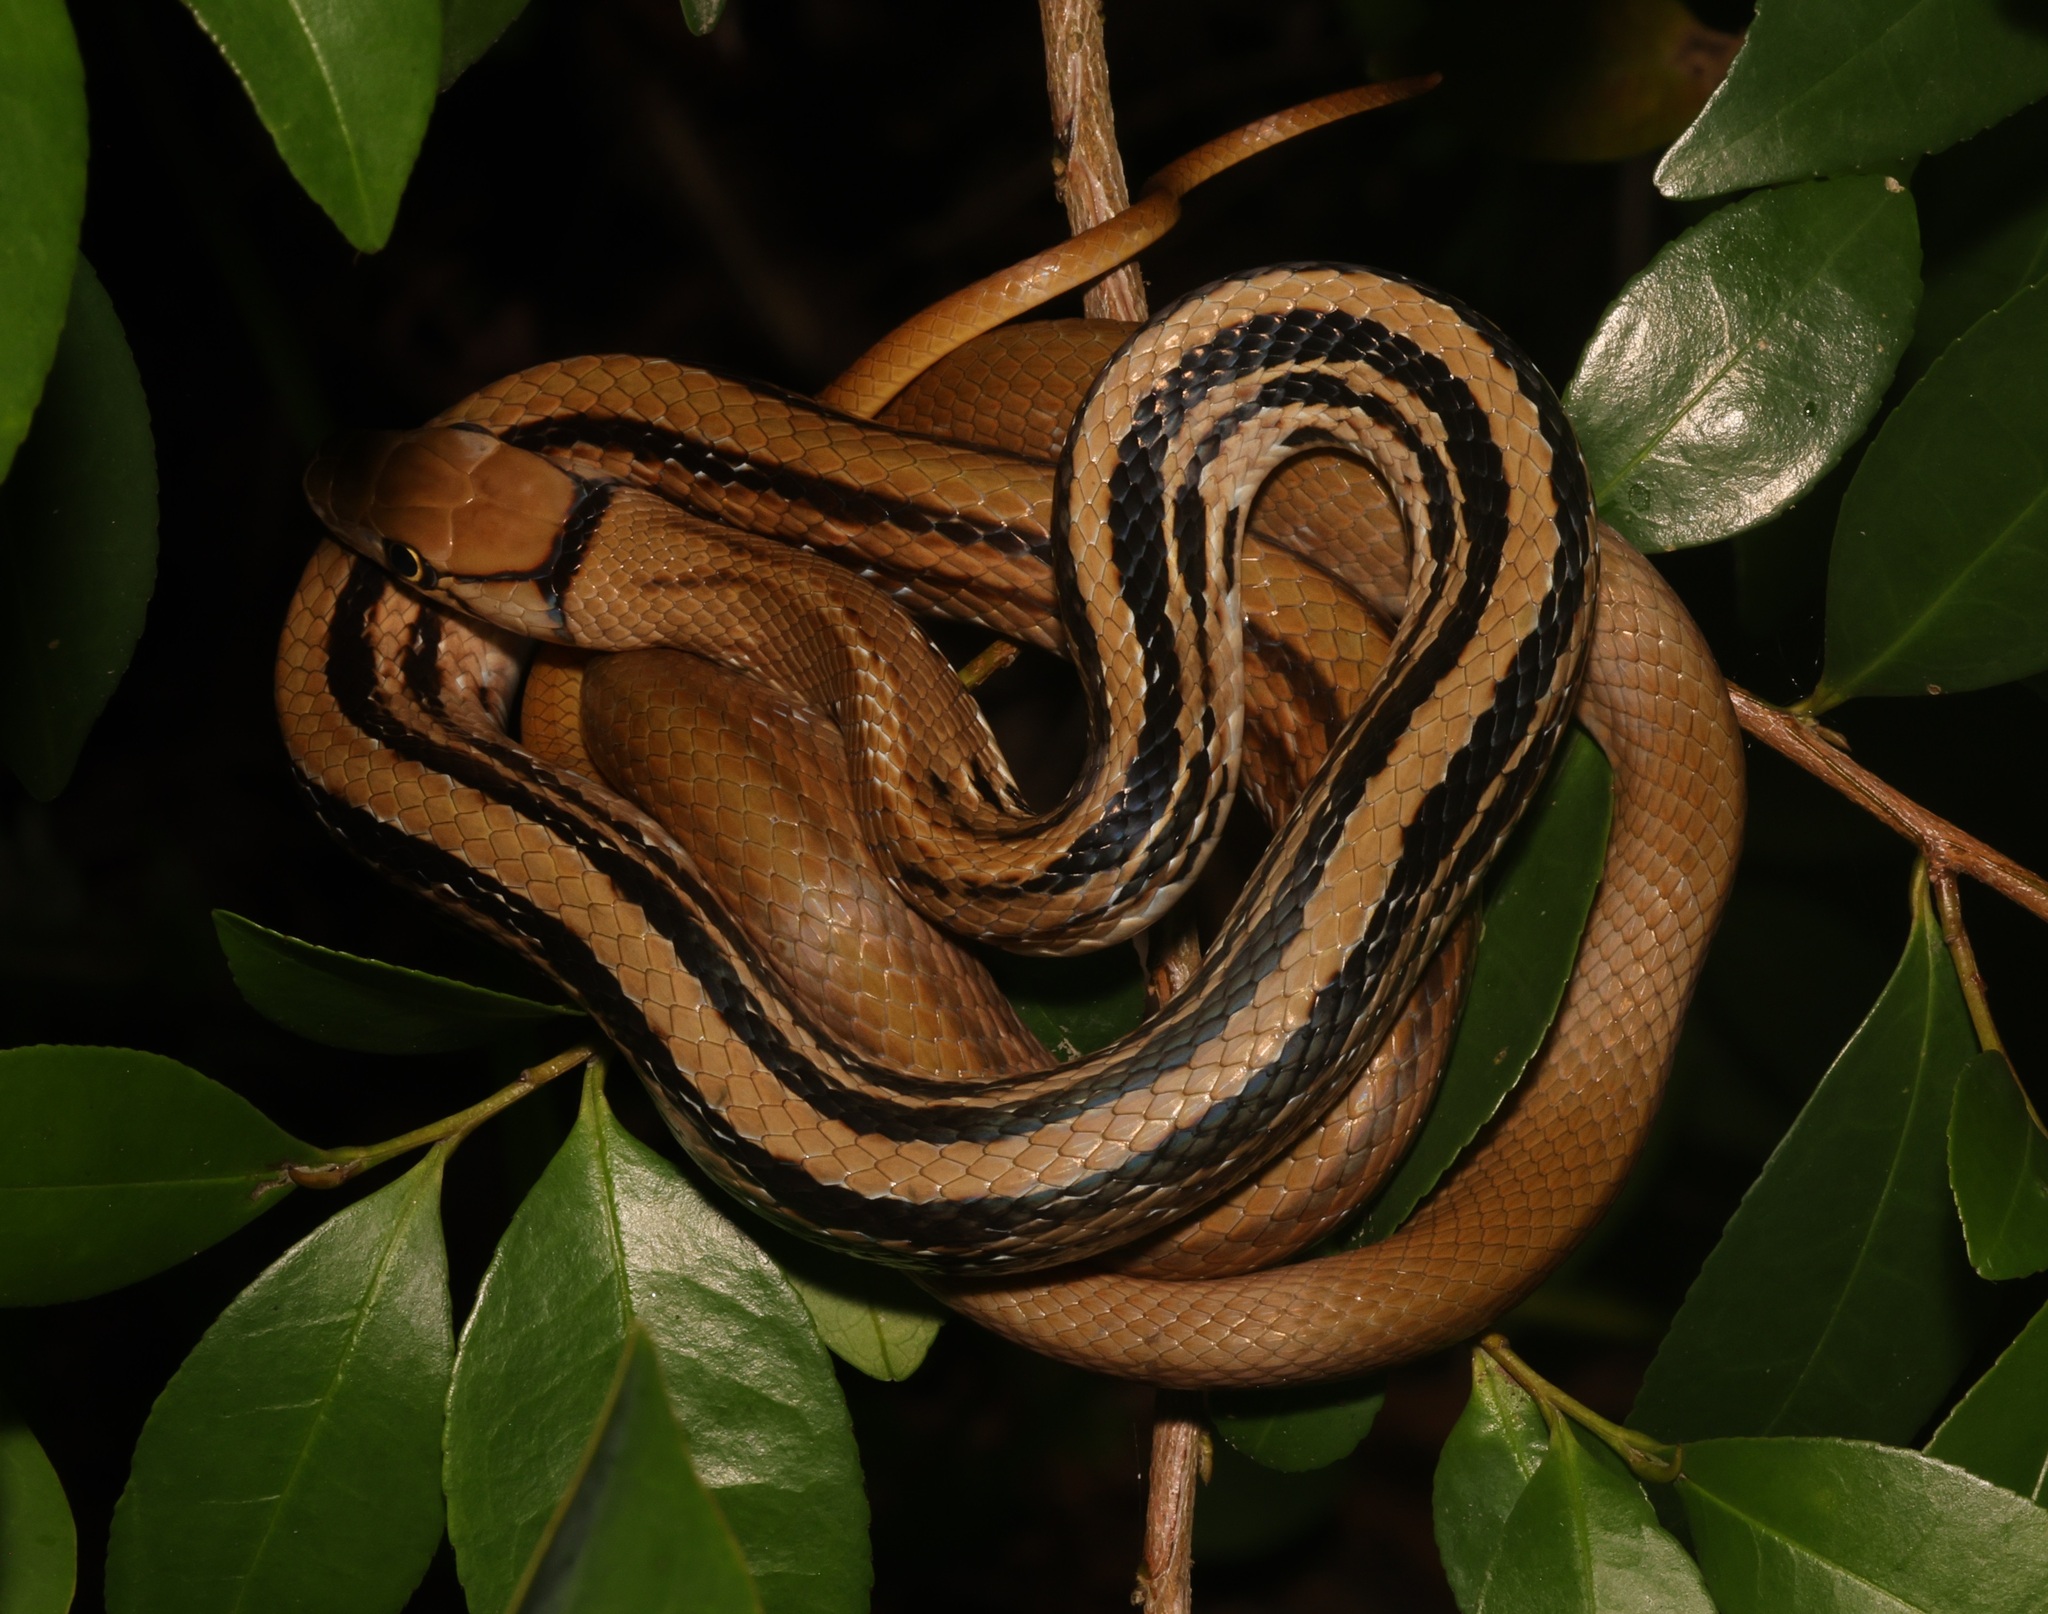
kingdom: Animalia
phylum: Chordata
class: Squamata
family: Colubridae
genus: Coelognathus
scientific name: Coelognathus radiatus
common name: Copperhead rat snake
